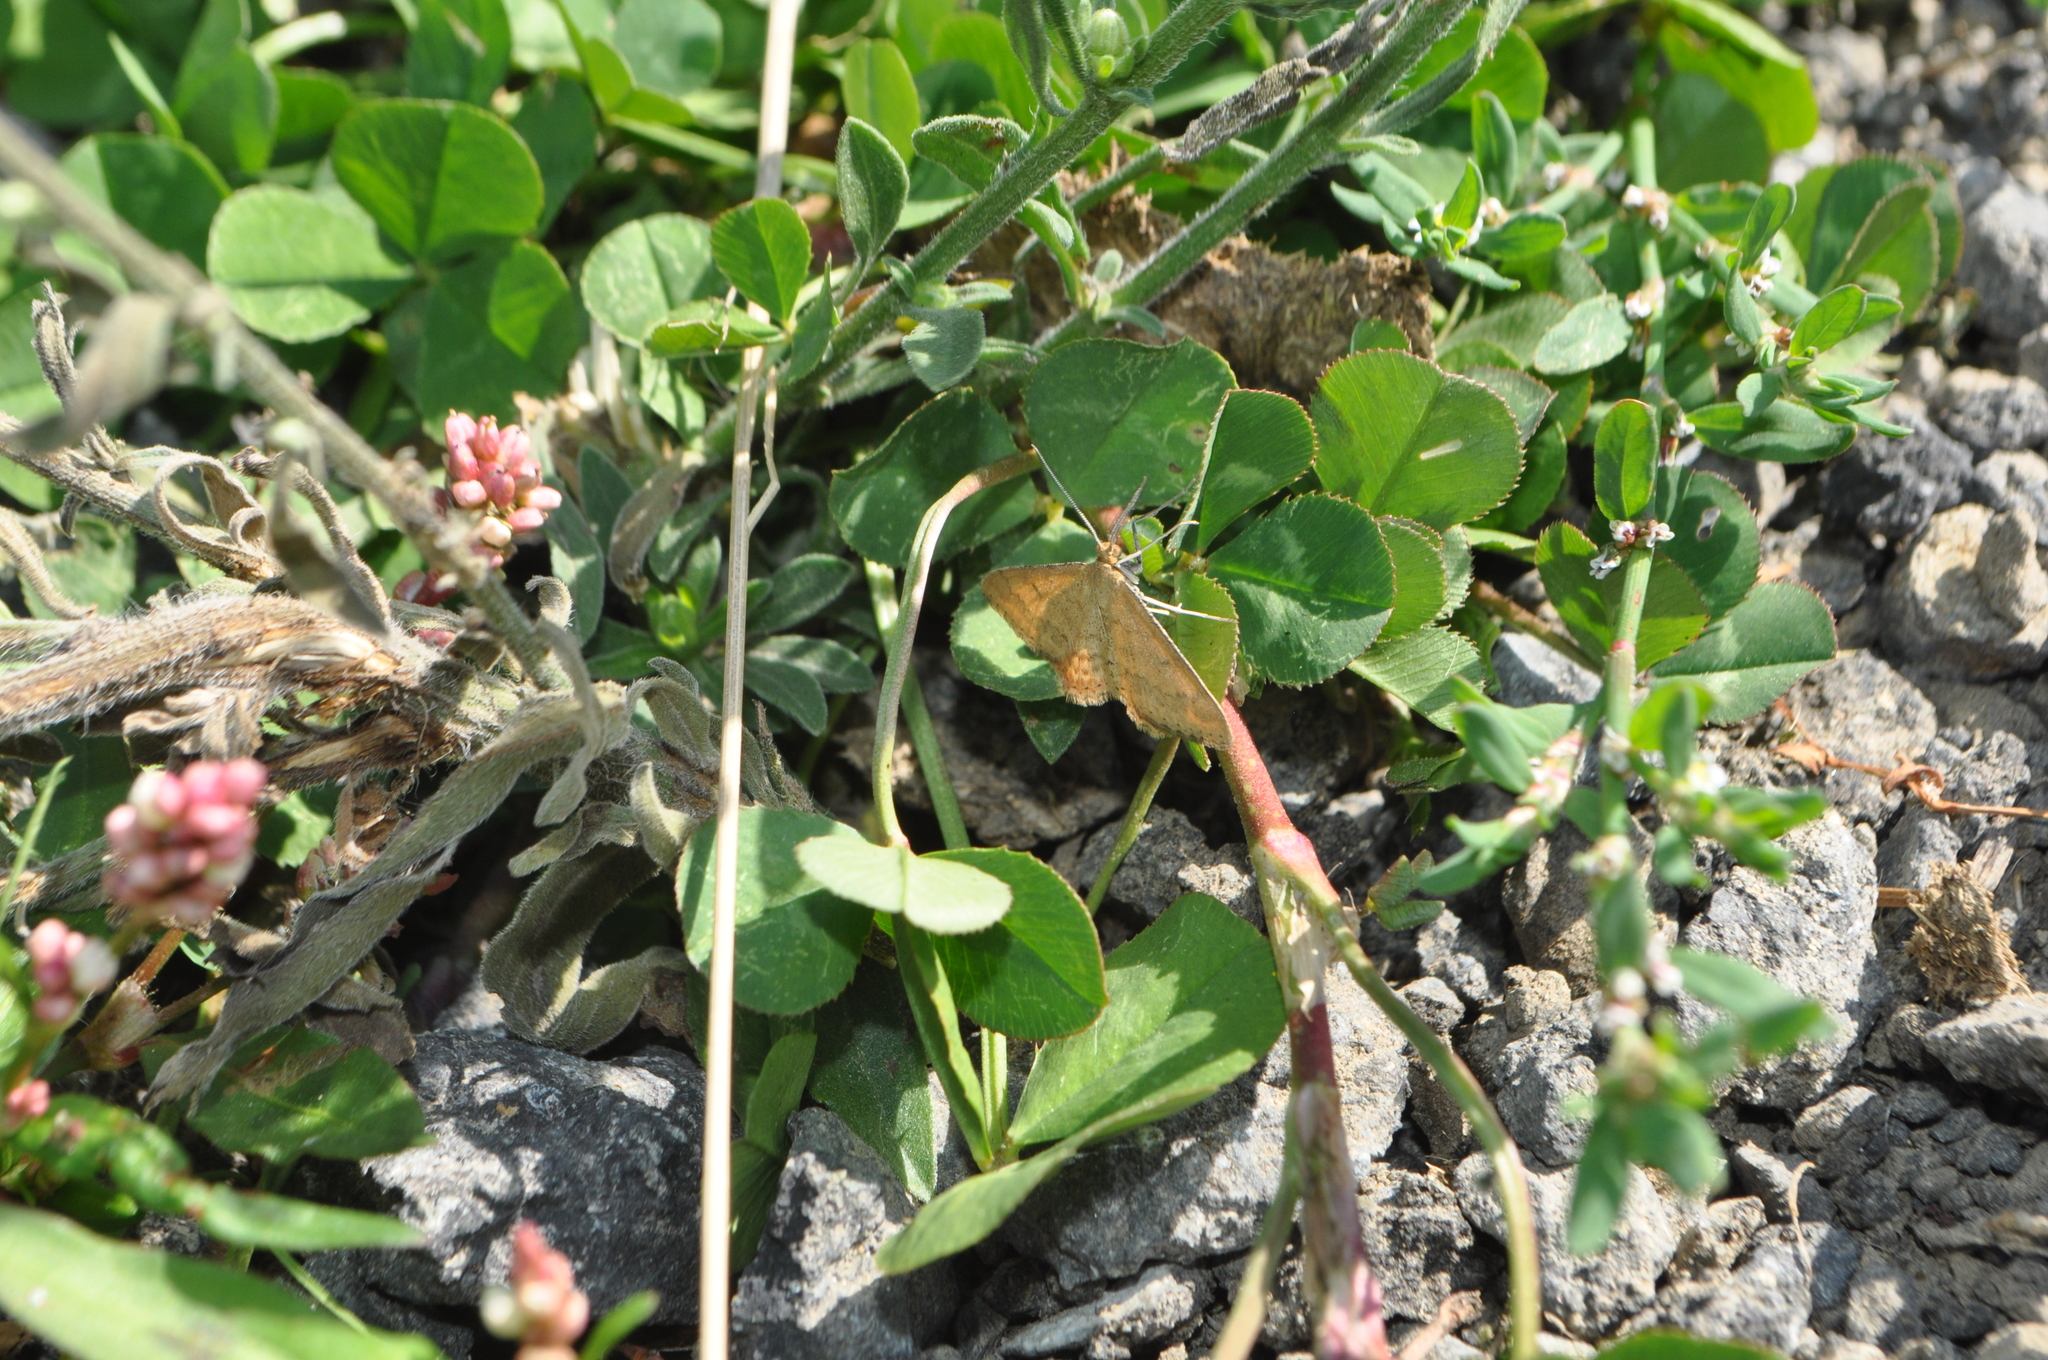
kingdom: Animalia
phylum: Arthropoda
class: Insecta
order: Lepidoptera
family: Geometridae
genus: Scopula
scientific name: Scopula rubraria
